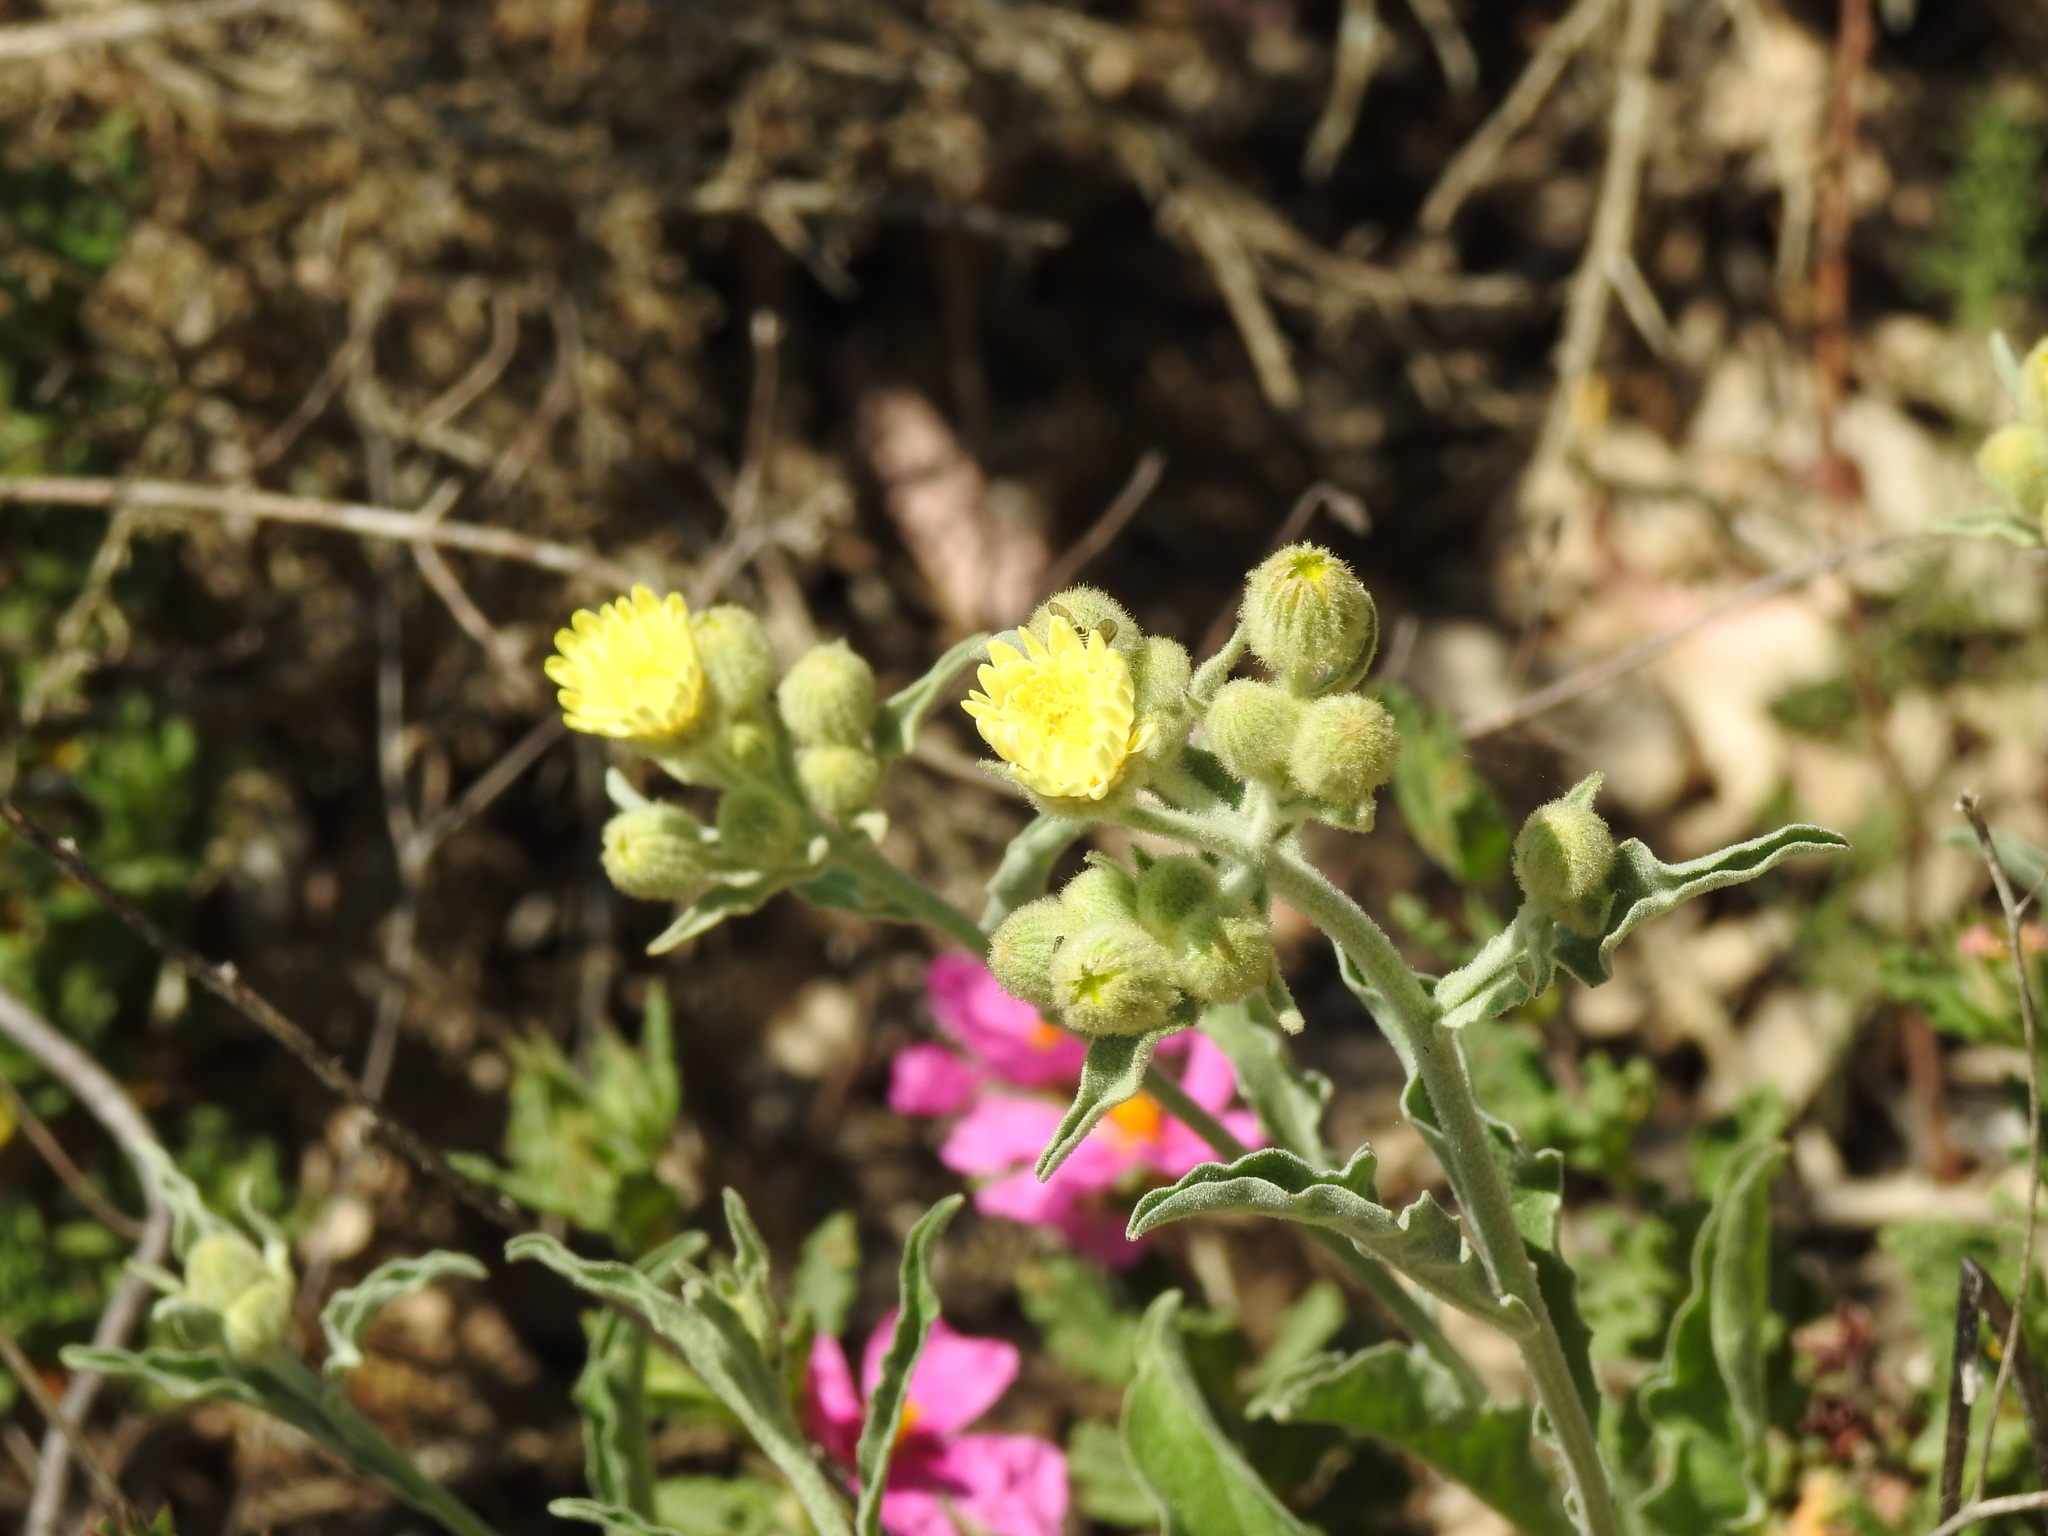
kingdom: Plantae
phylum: Tracheophyta
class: Magnoliopsida
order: Asterales
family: Asteraceae
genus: Andryala
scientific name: Andryala integrifolia
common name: Common andryala
